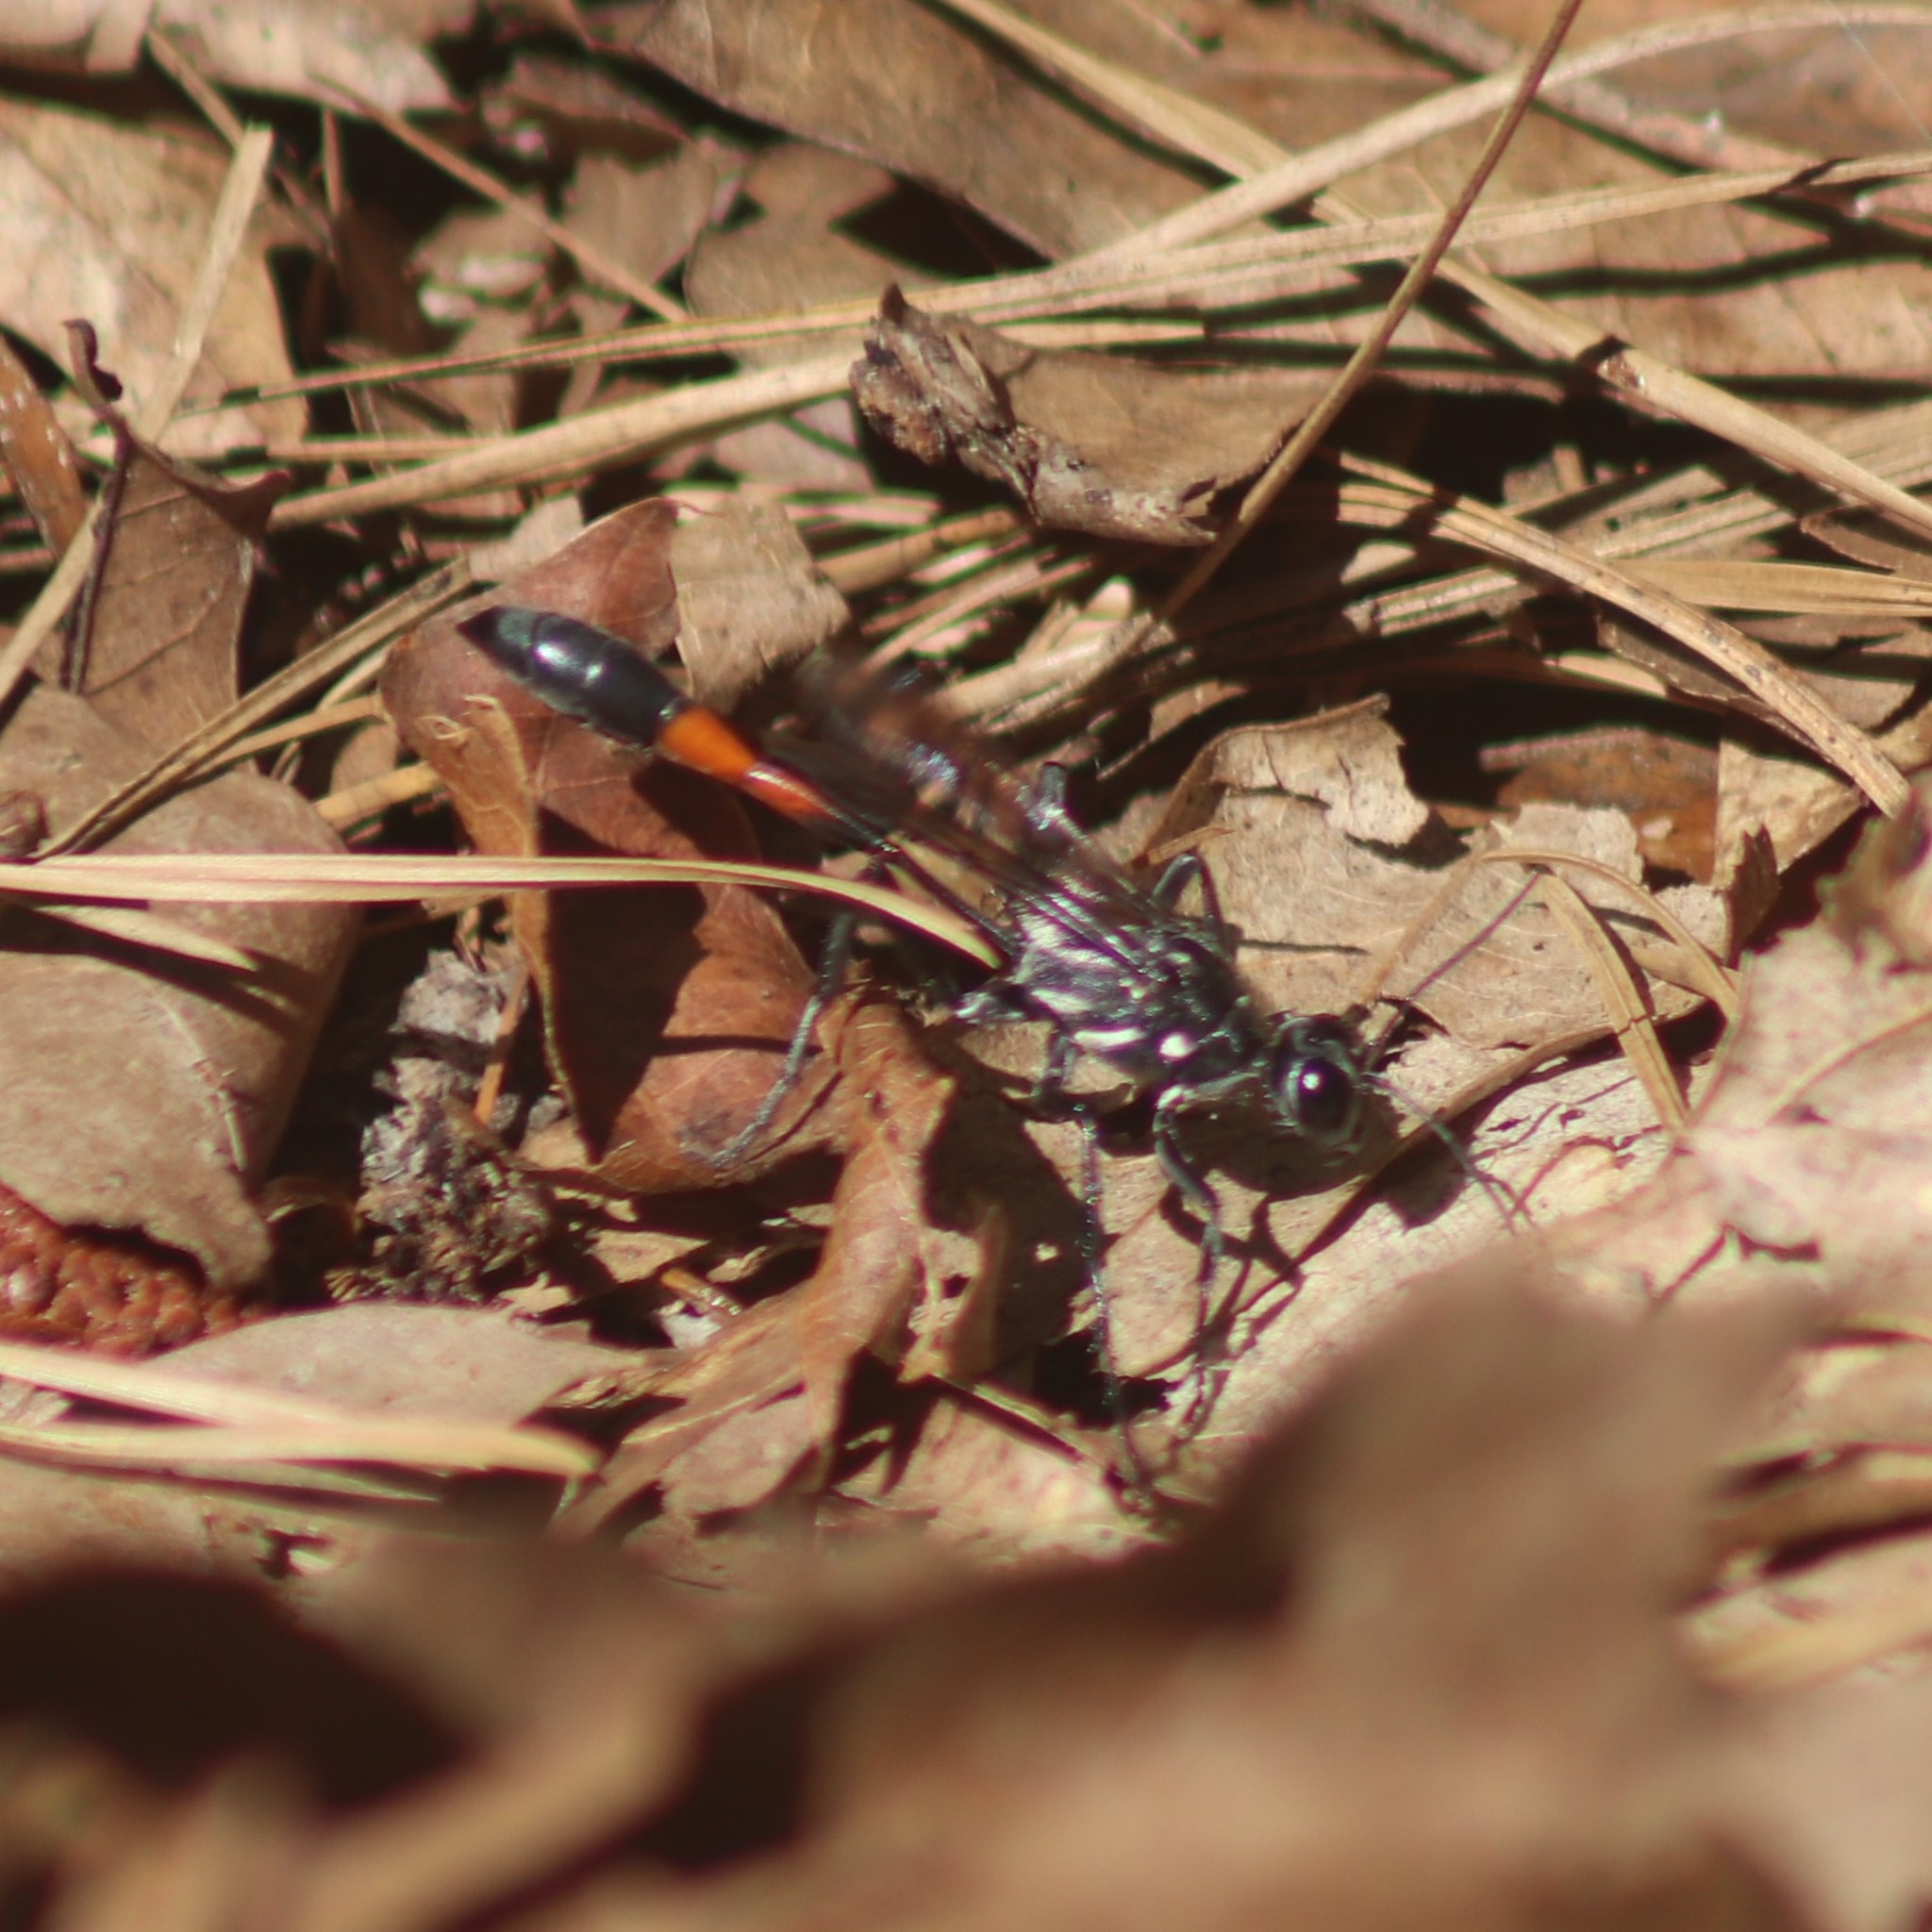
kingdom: Animalia
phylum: Arthropoda
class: Insecta
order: Hymenoptera
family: Sphecidae
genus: Ammophila
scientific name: Ammophila procera
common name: Common thread-waisted wasp
